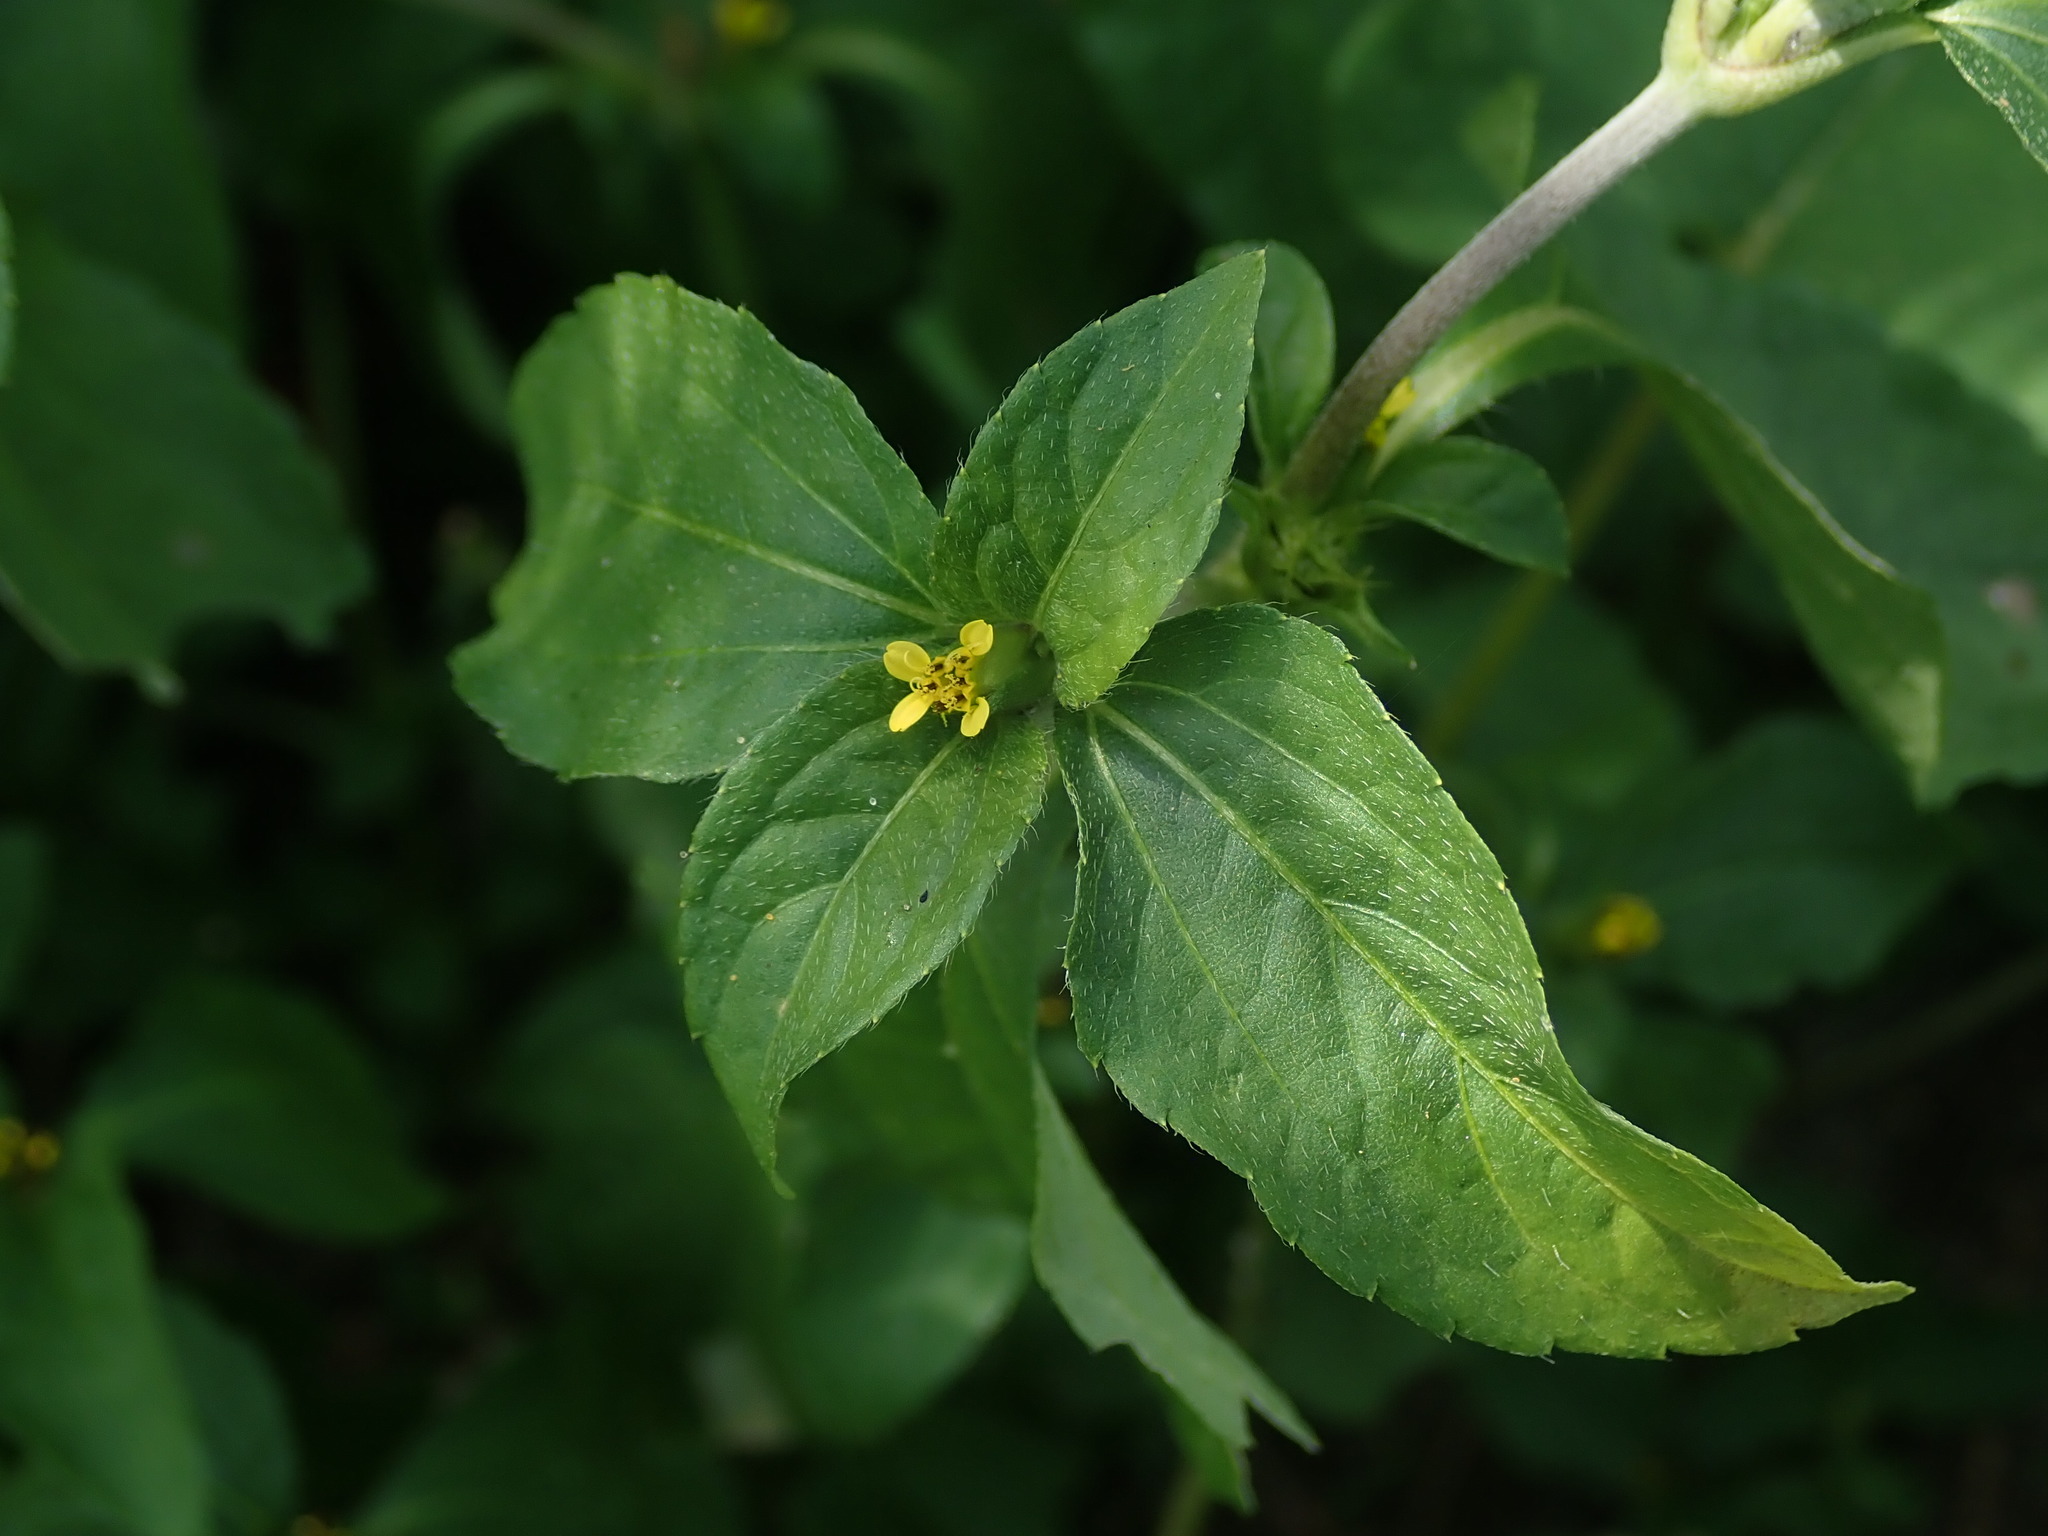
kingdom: Plantae
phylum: Tracheophyta
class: Magnoliopsida
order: Asterales
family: Asteraceae
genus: Synedrella
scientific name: Synedrella nodiflora
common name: Nodeweed
